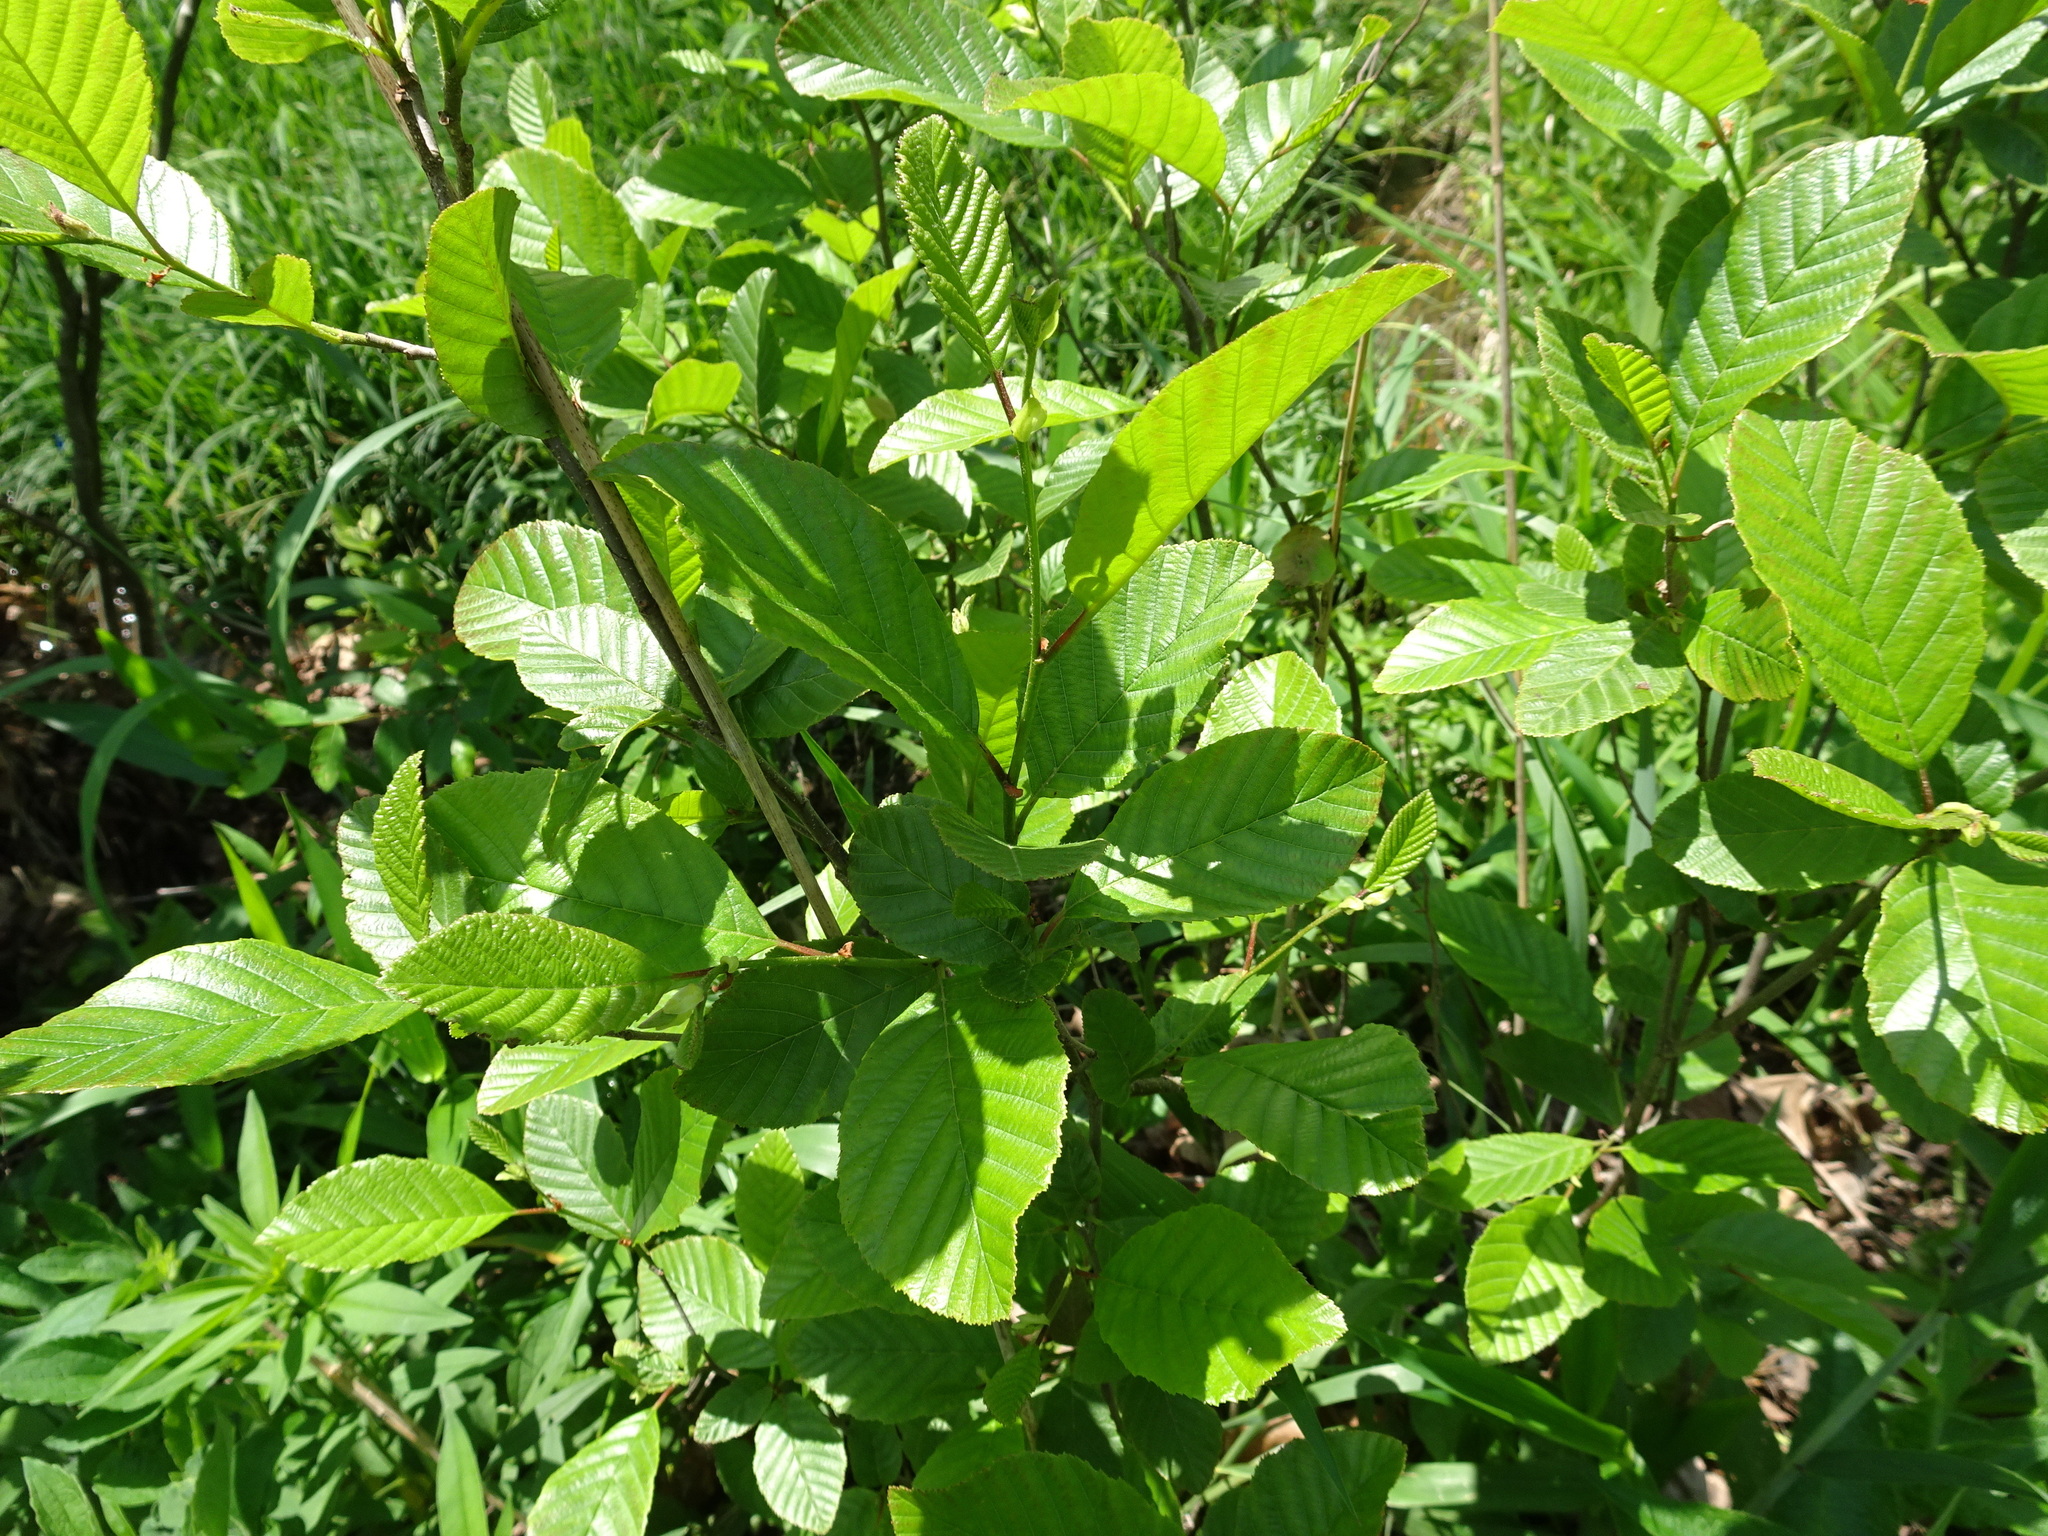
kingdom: Plantae
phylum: Tracheophyta
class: Magnoliopsida
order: Fagales
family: Betulaceae
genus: Alnus
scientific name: Alnus serrulata
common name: Hazel alder
